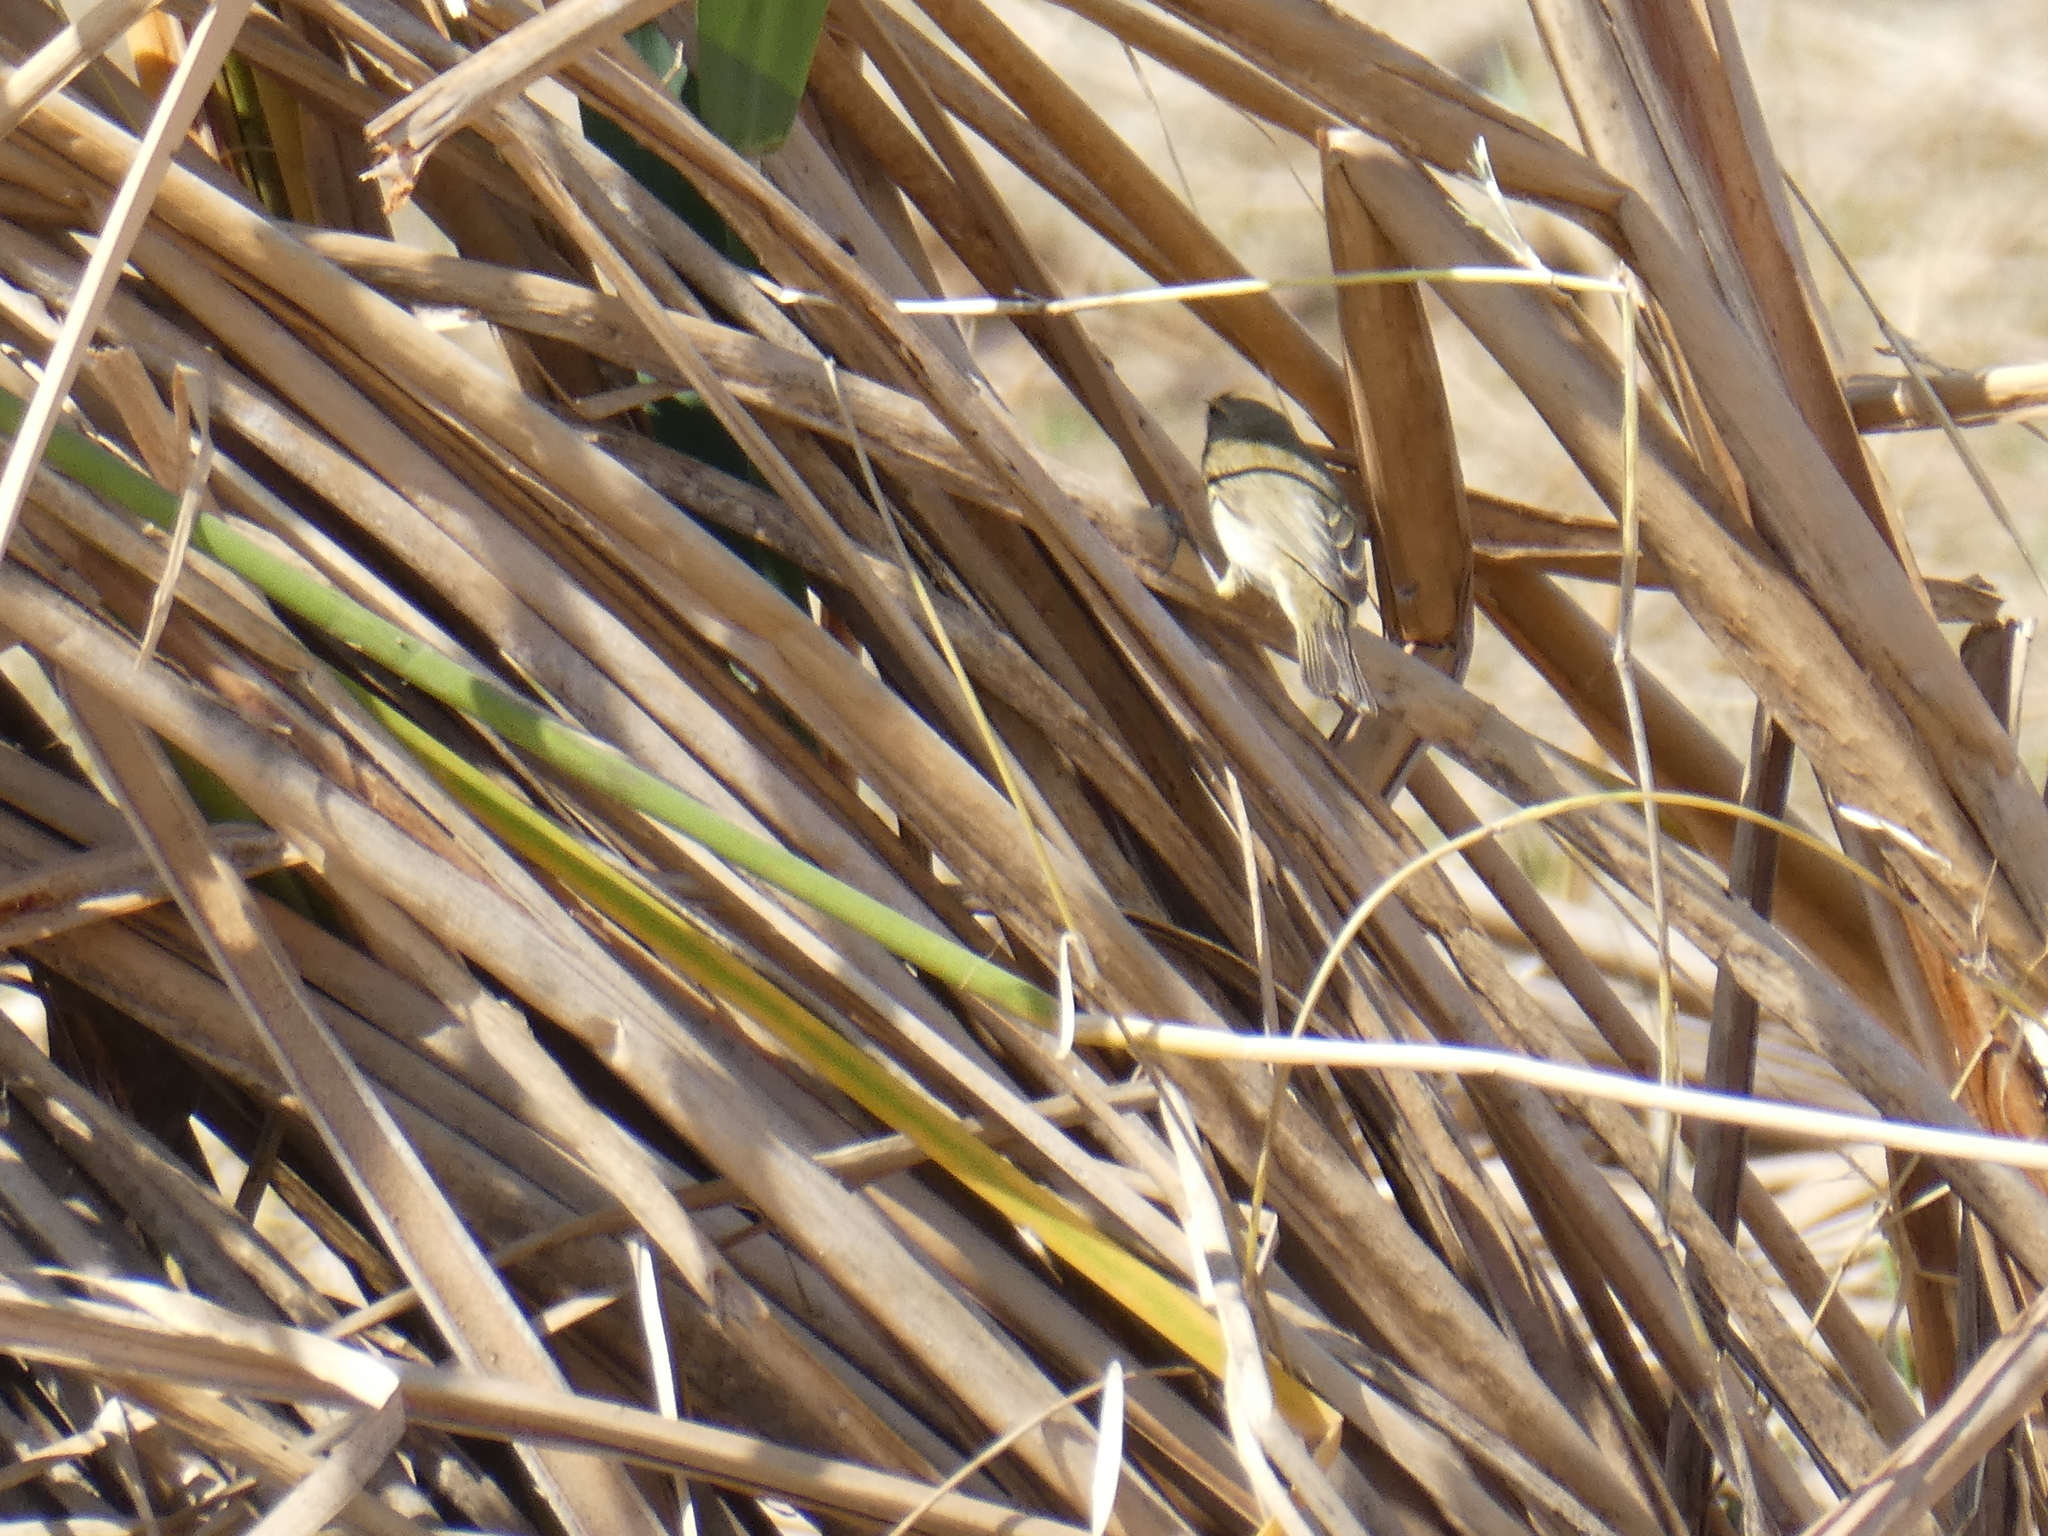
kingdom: Animalia
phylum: Chordata
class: Aves
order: Passeriformes
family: Phylloscopidae
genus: Phylloscopus
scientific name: Phylloscopus collybita
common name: Common chiffchaff
